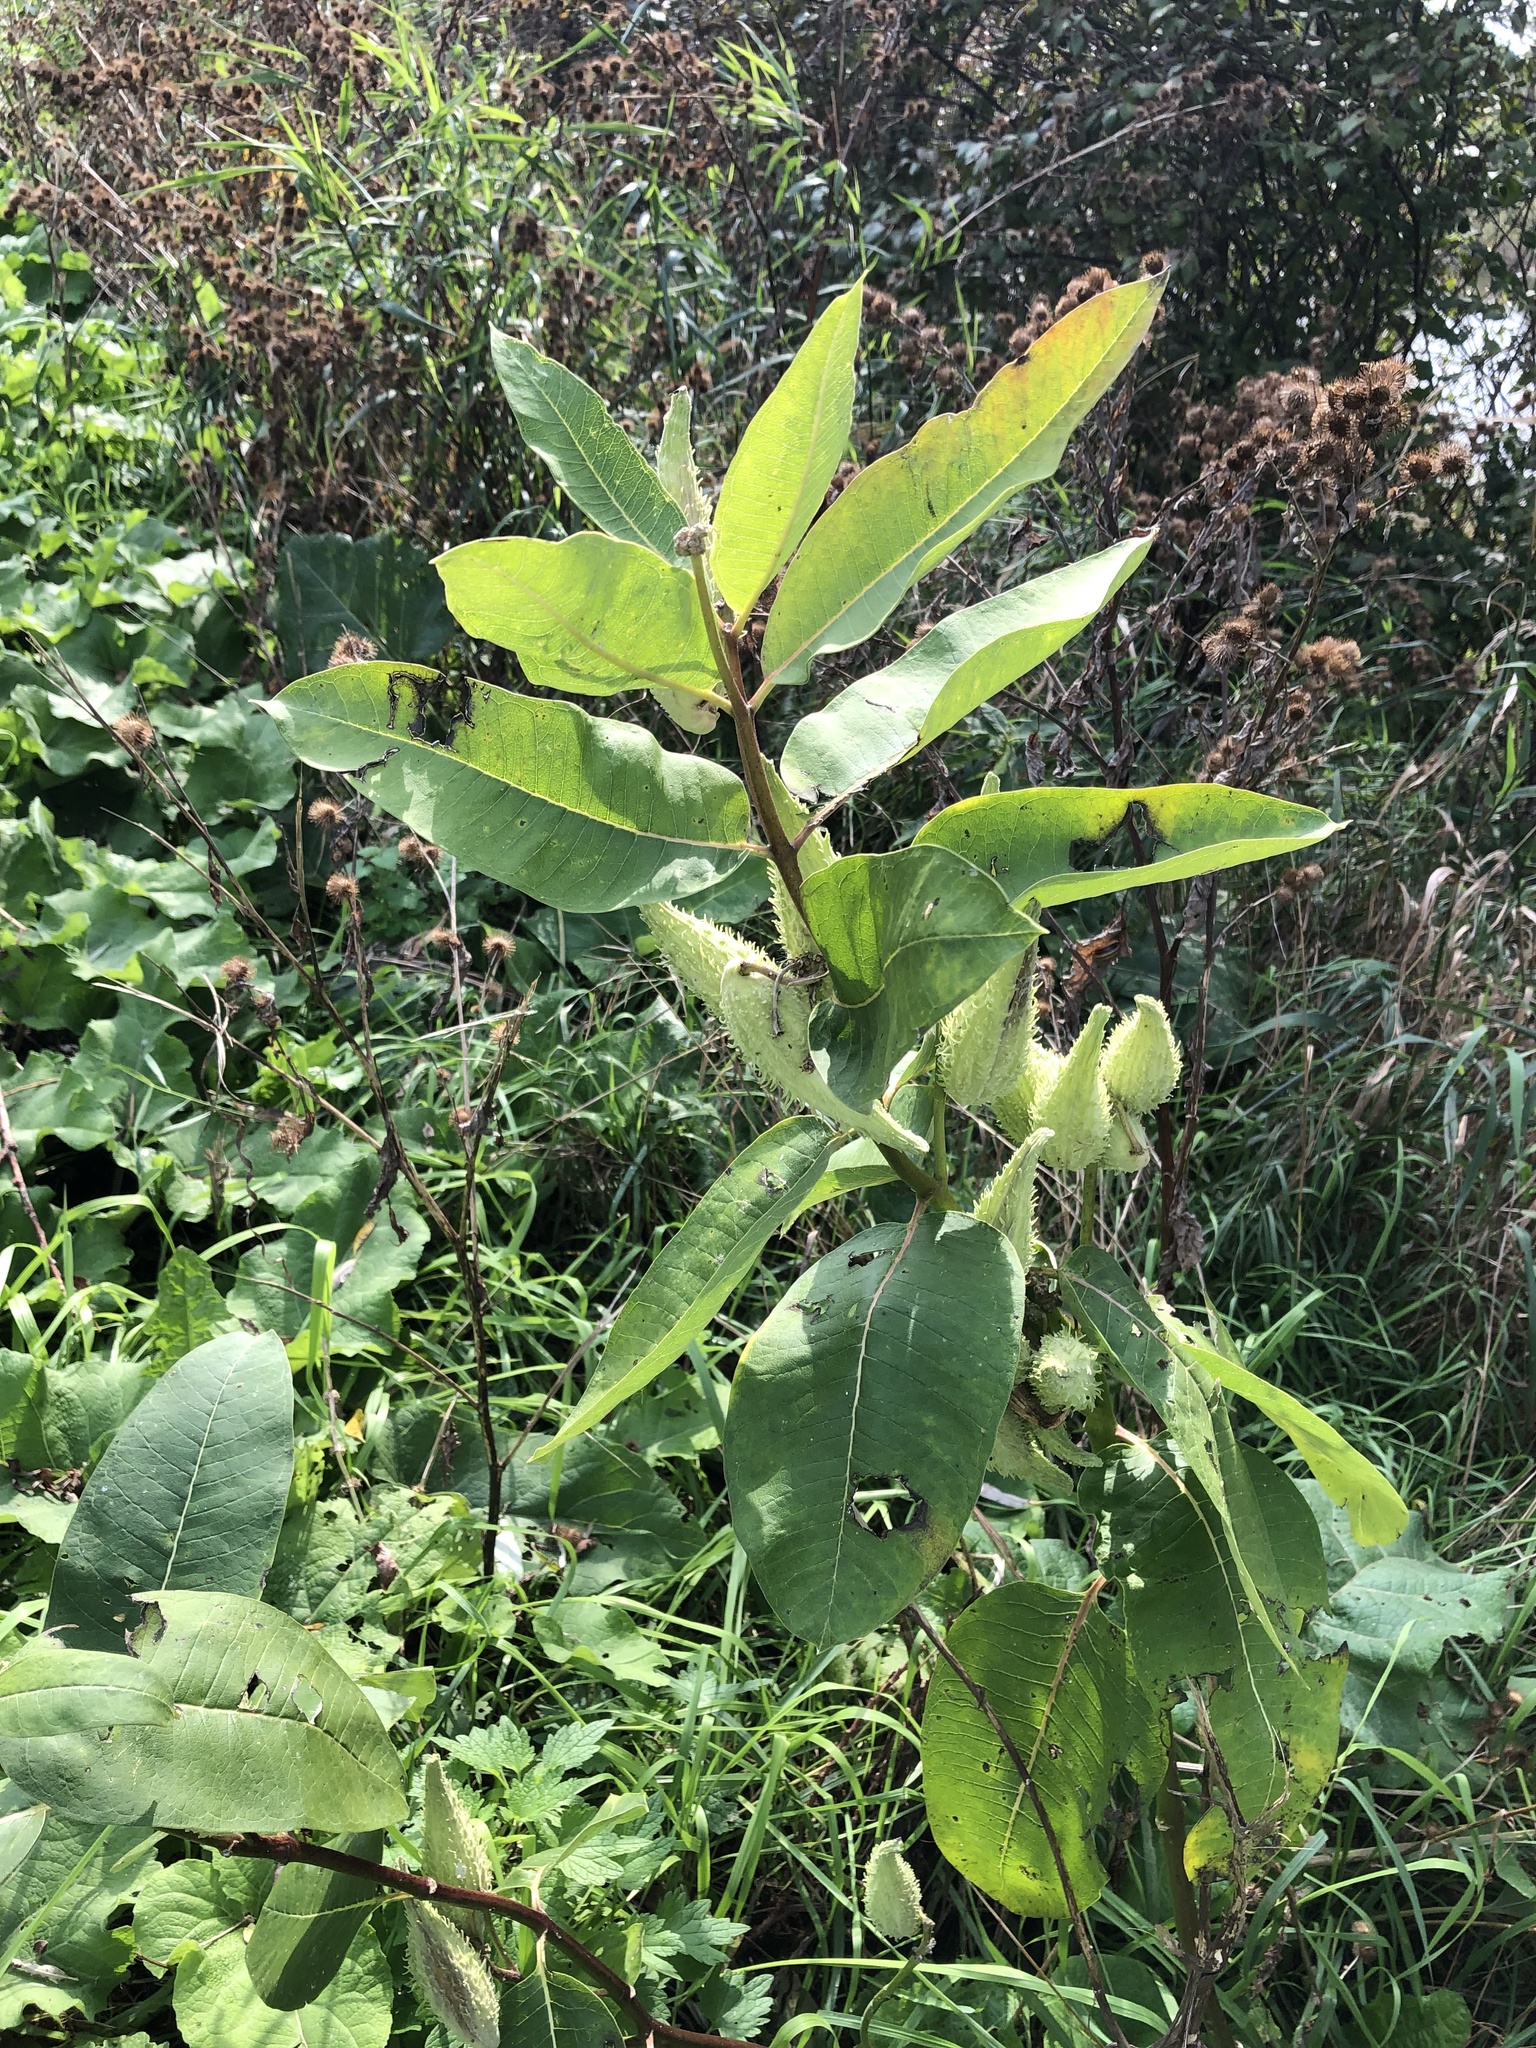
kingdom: Plantae
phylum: Tracheophyta
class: Magnoliopsida
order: Gentianales
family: Apocynaceae
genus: Asclepias
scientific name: Asclepias syriaca
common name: Common milkweed
